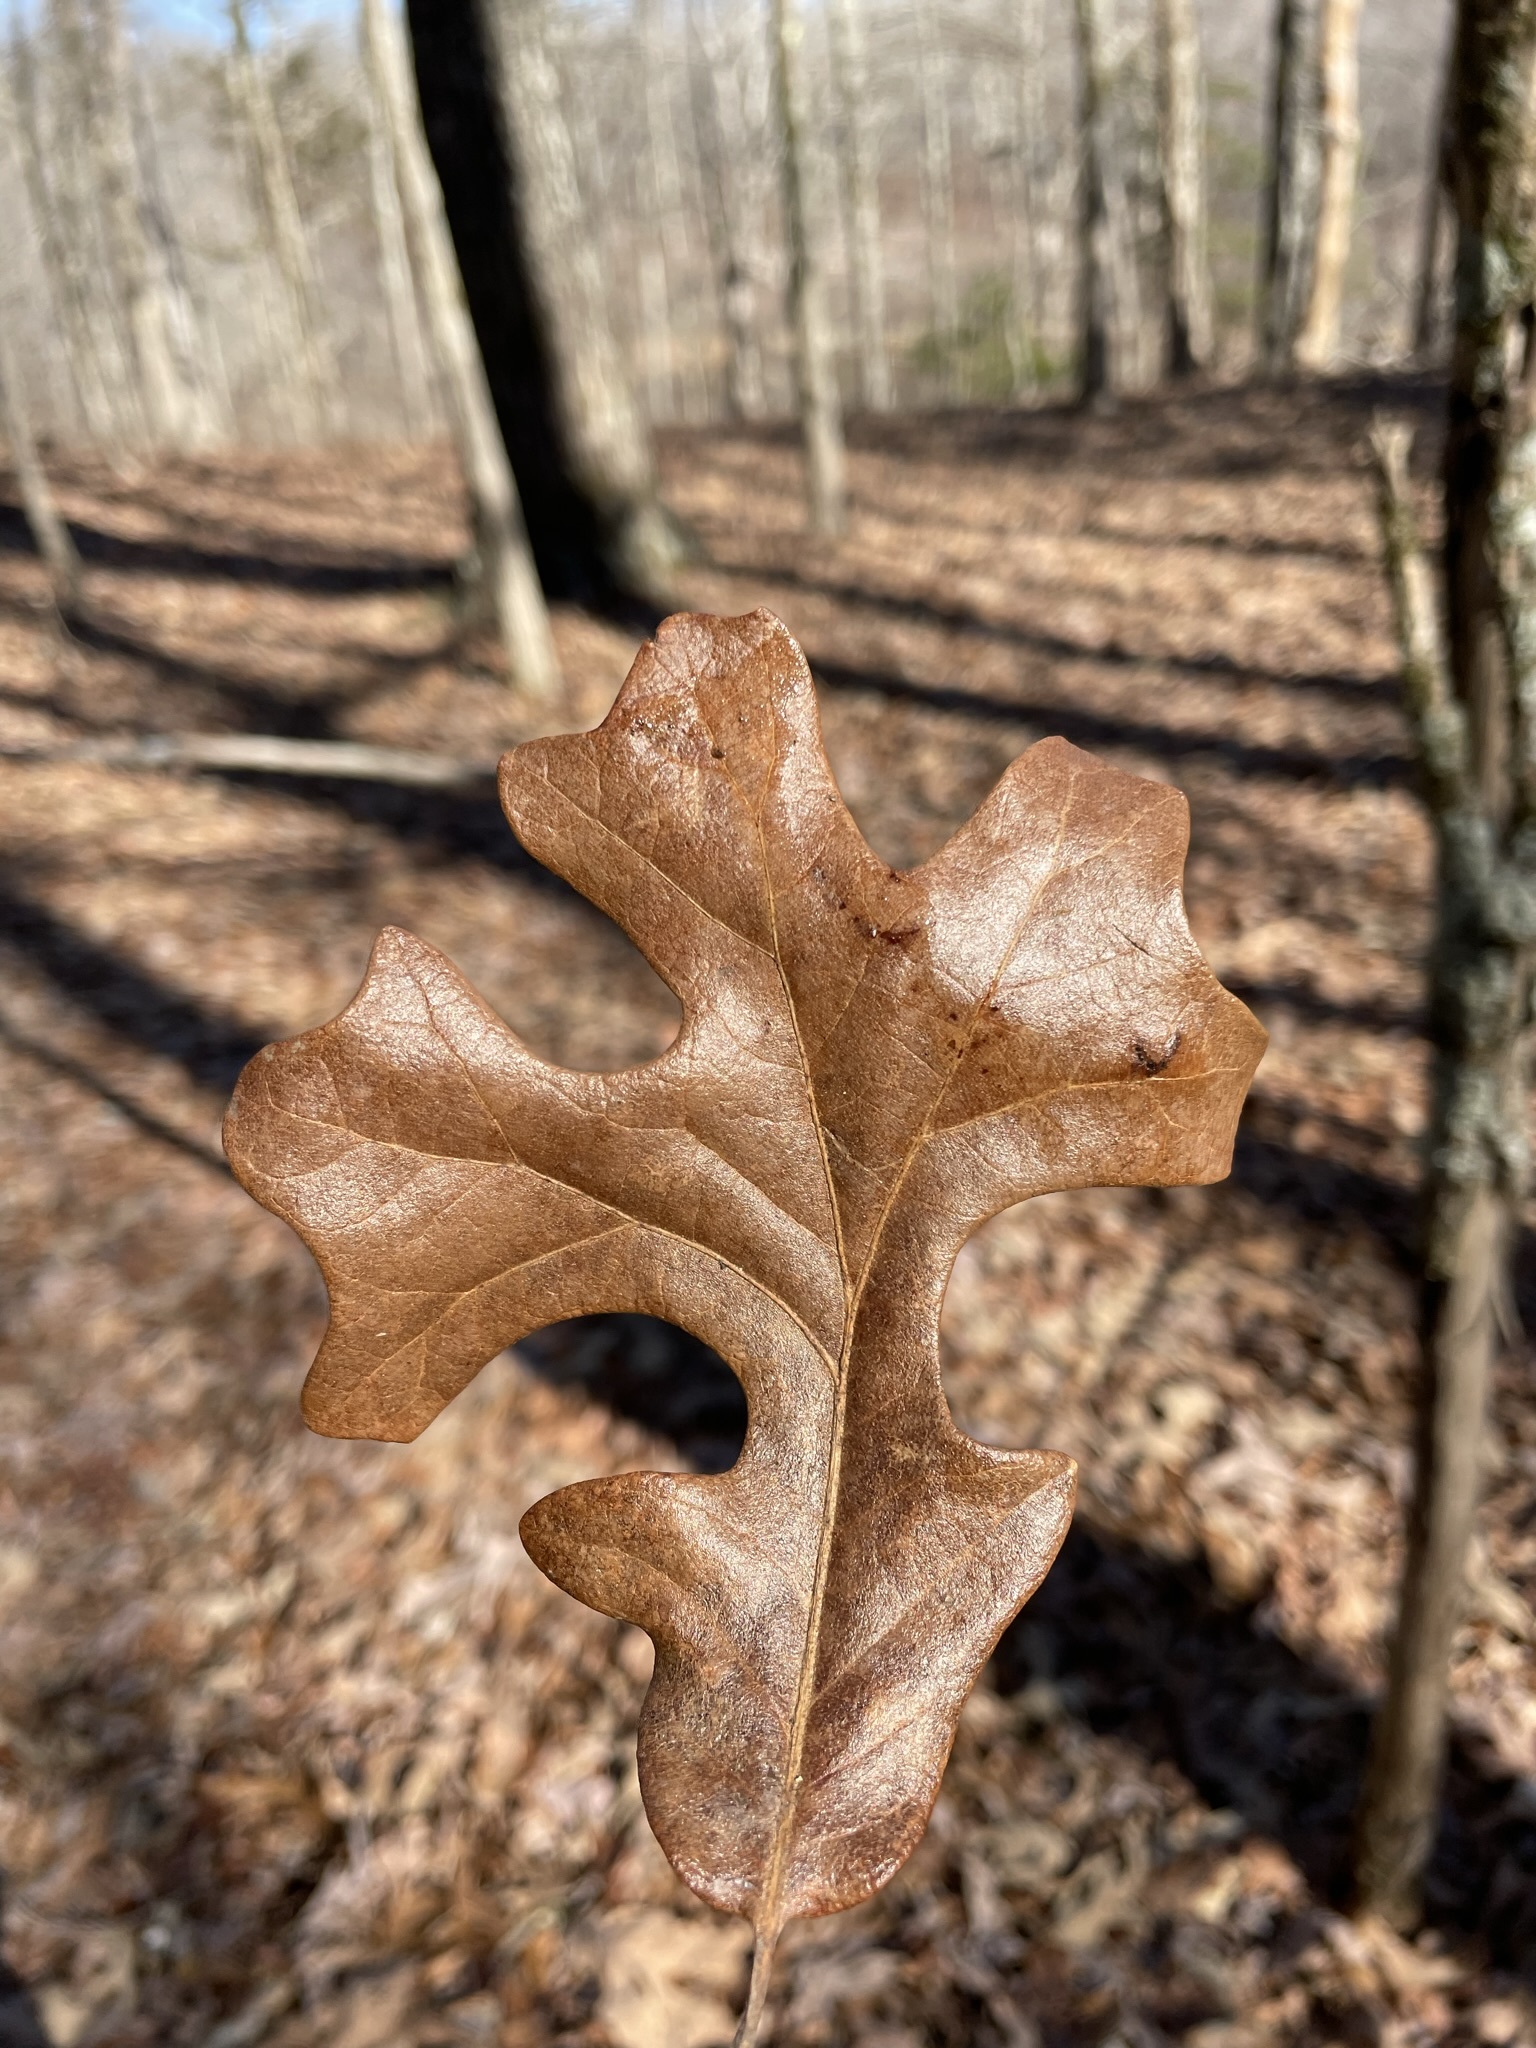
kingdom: Plantae
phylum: Tracheophyta
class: Magnoliopsida
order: Fagales
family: Fagaceae
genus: Quercus
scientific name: Quercus stellata
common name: Post oak
